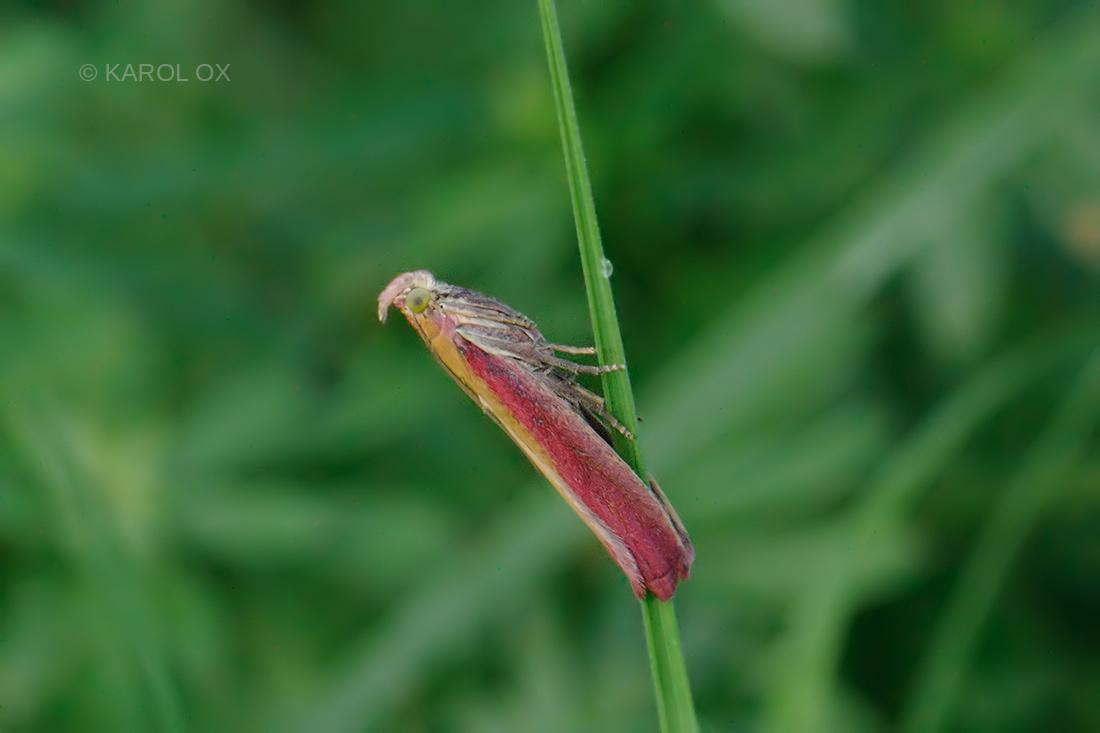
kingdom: Animalia
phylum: Arthropoda
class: Insecta
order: Lepidoptera
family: Pyralidae
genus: Oncocera
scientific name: Oncocera semirubella
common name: Rosy-striped knot-horn
